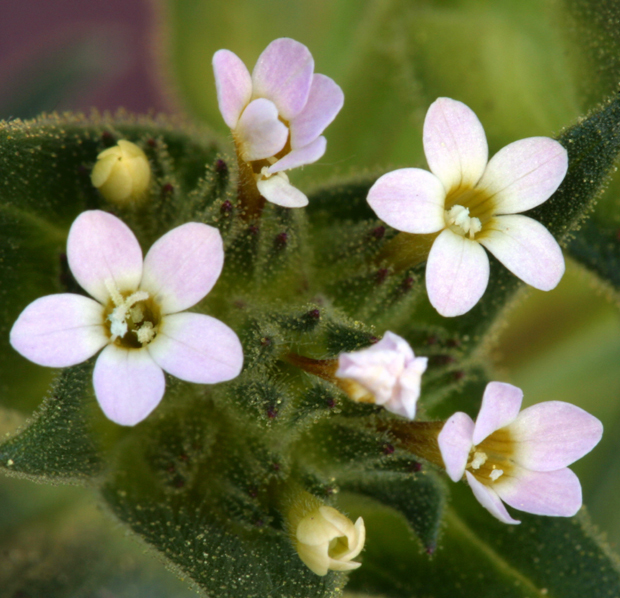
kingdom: Plantae
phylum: Tracheophyta
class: Magnoliopsida
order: Ericales
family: Polemoniaceae
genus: Collomia
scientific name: Collomia linearis
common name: Tiny trumpet
